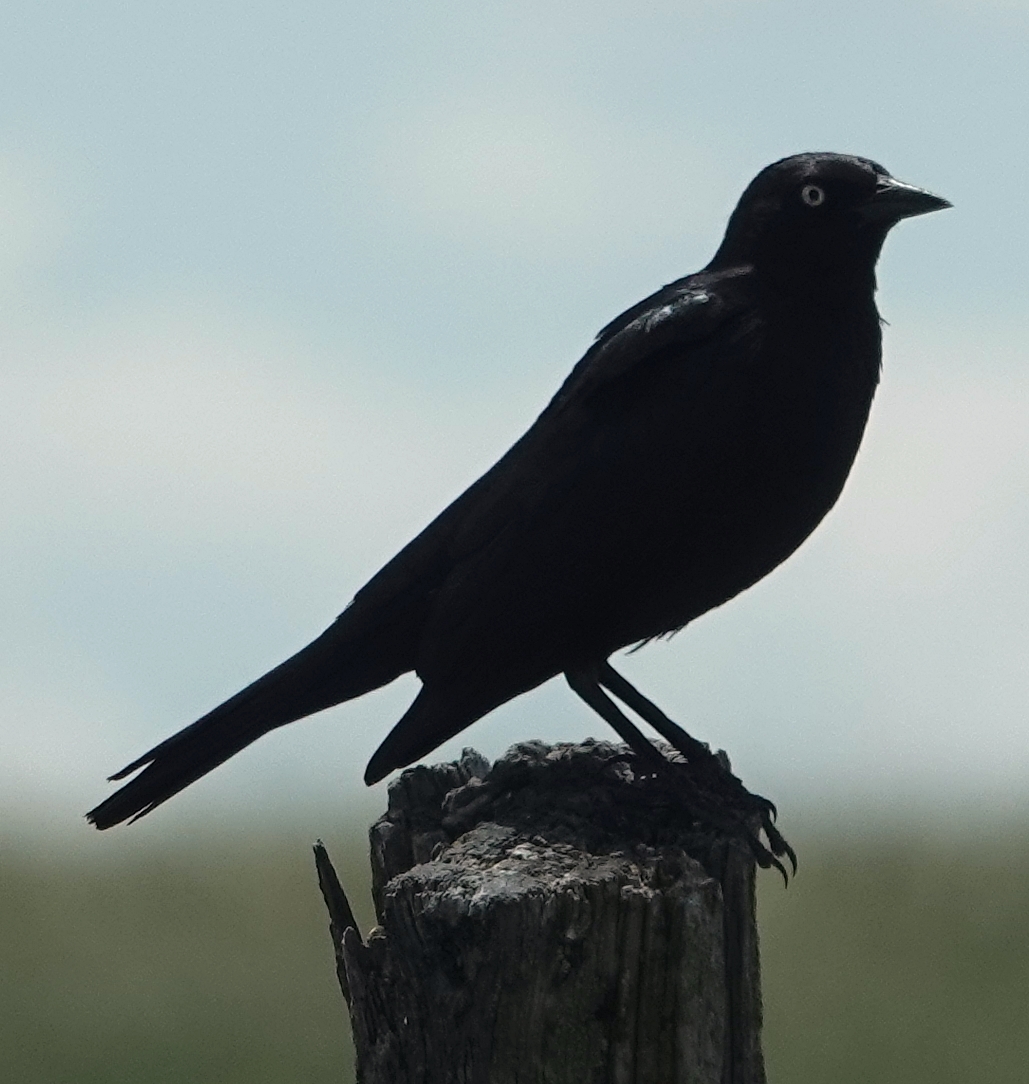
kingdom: Animalia
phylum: Chordata
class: Aves
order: Passeriformes
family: Icteridae
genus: Euphagus
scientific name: Euphagus cyanocephalus
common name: Brewer's blackbird
